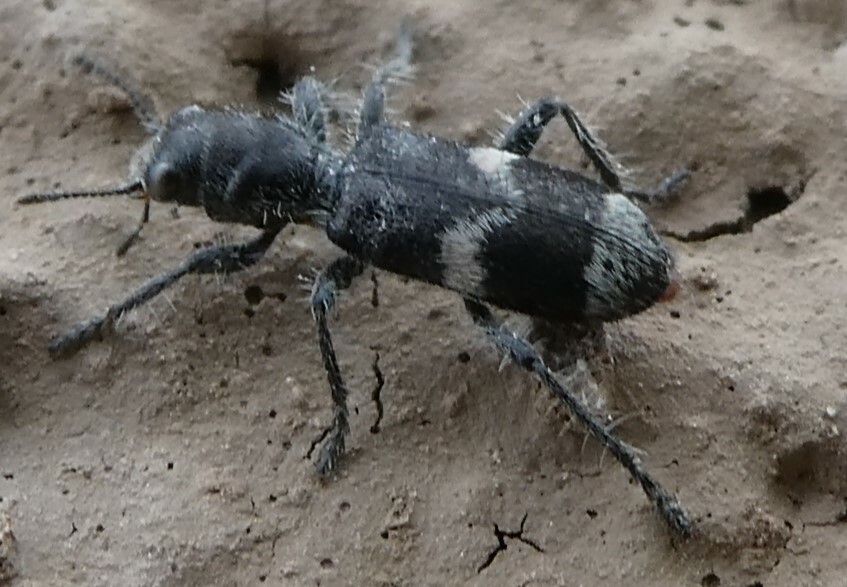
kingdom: Animalia
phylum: Arthropoda
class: Insecta
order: Coleoptera
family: Cleridae
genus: Enoclerus
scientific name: Enoclerus nigripes
